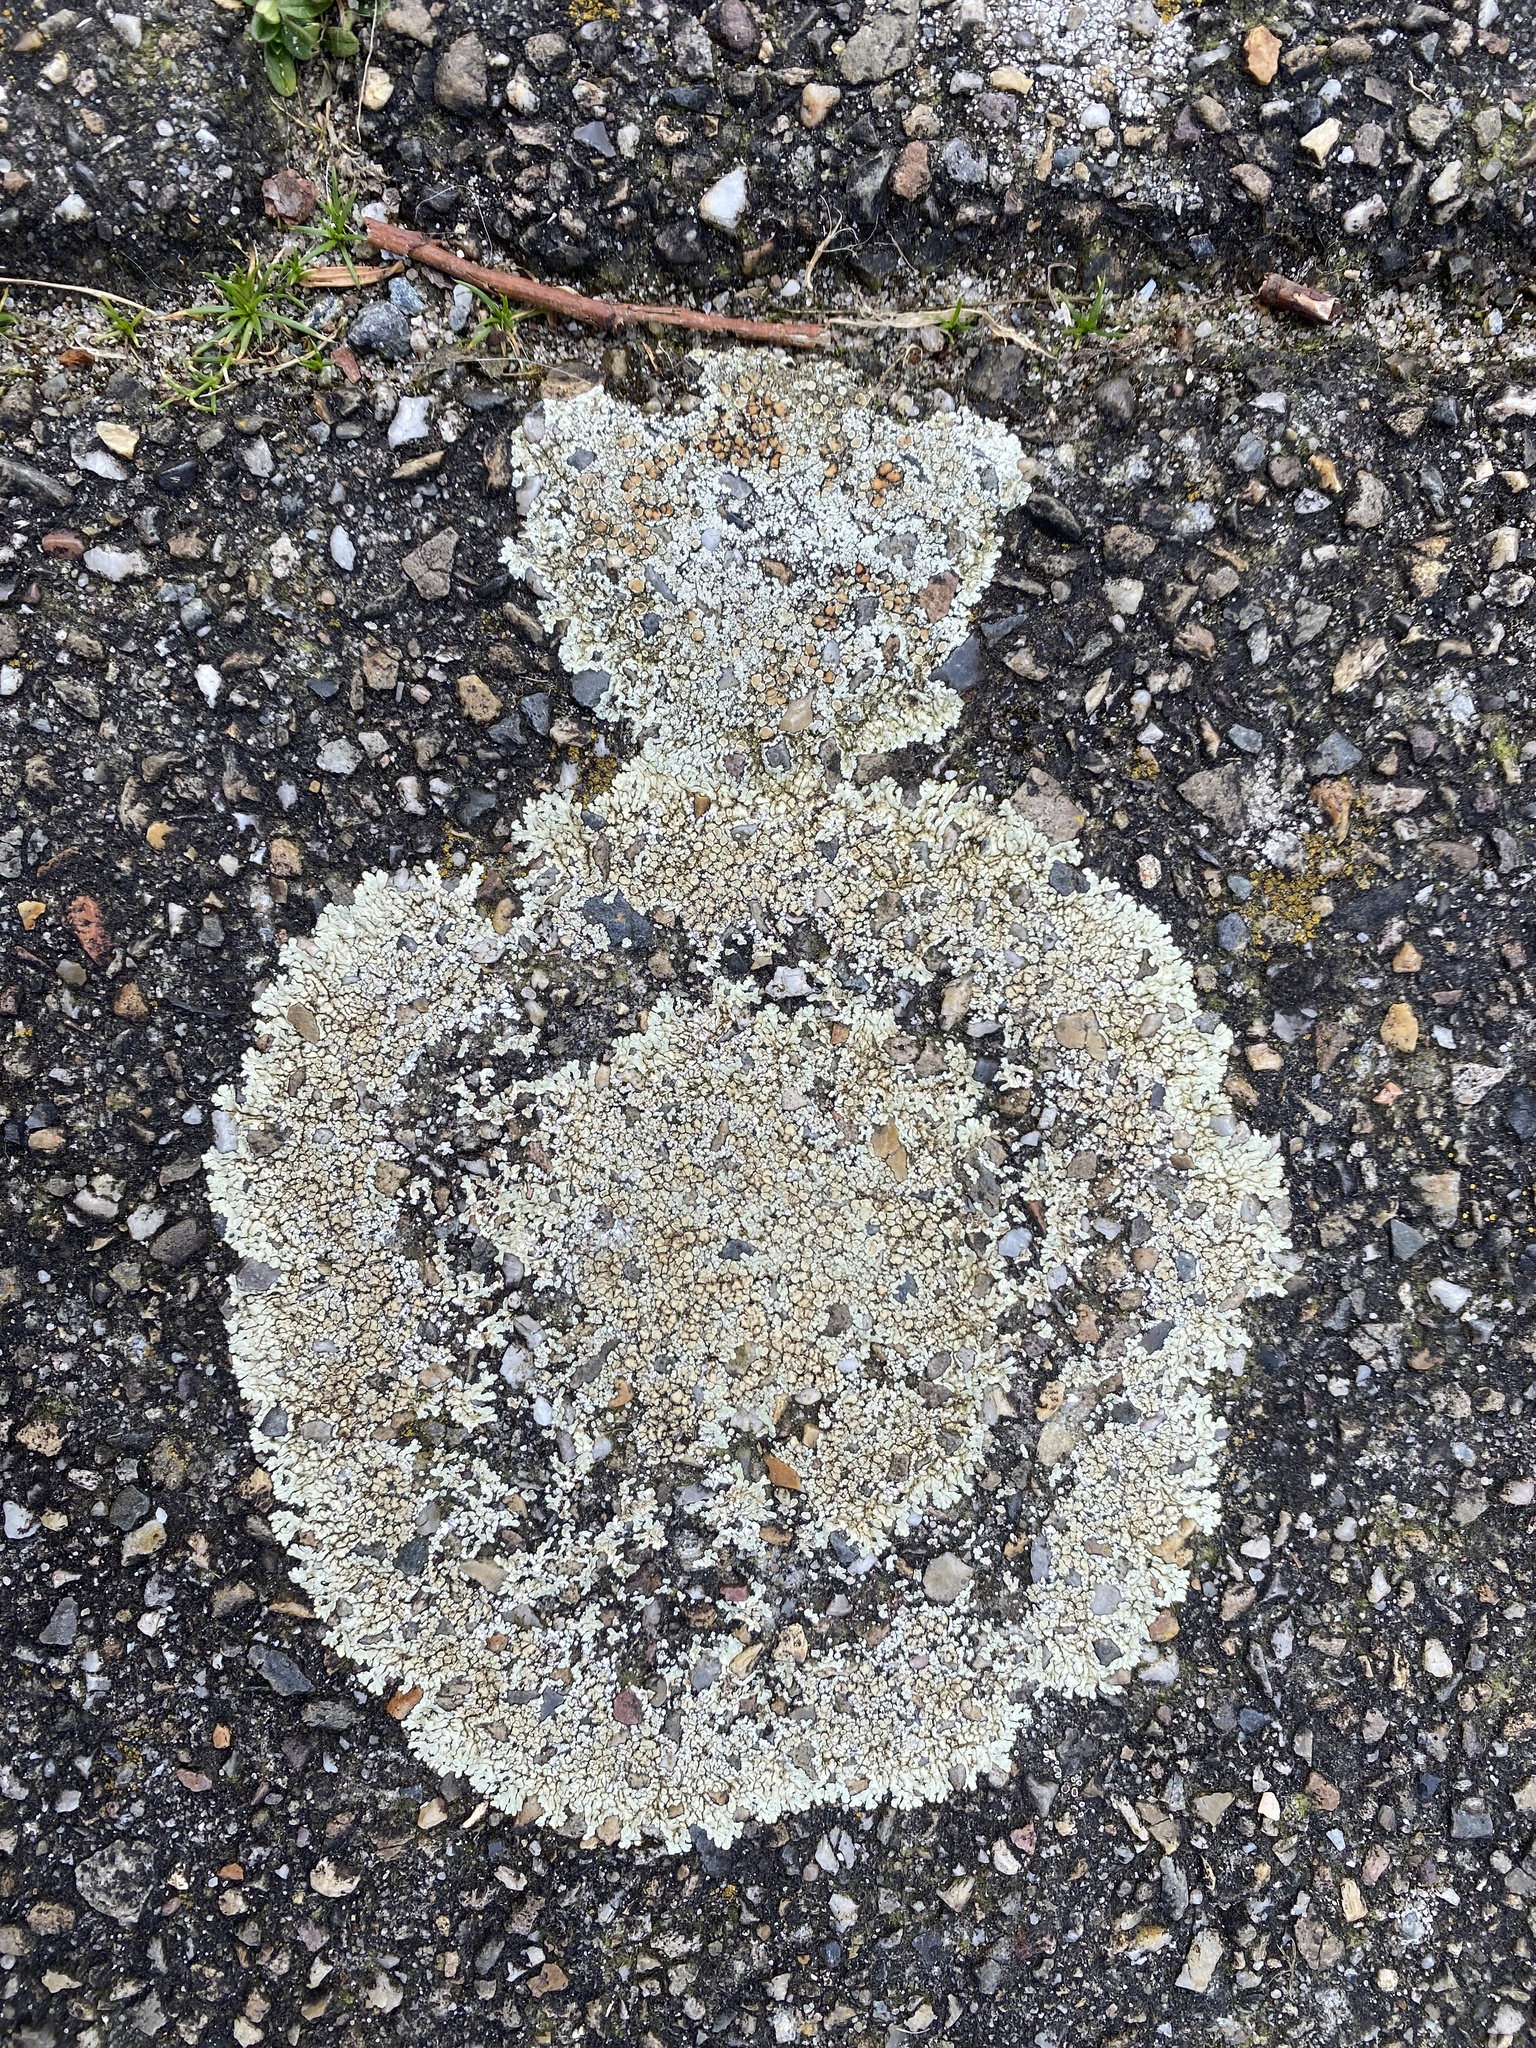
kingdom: Fungi
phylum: Ascomycota
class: Lecanoromycetes
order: Lecanorales
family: Lecanoraceae
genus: Protoparmeliopsis
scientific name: Protoparmeliopsis muralis
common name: Stonewall rim lichen
